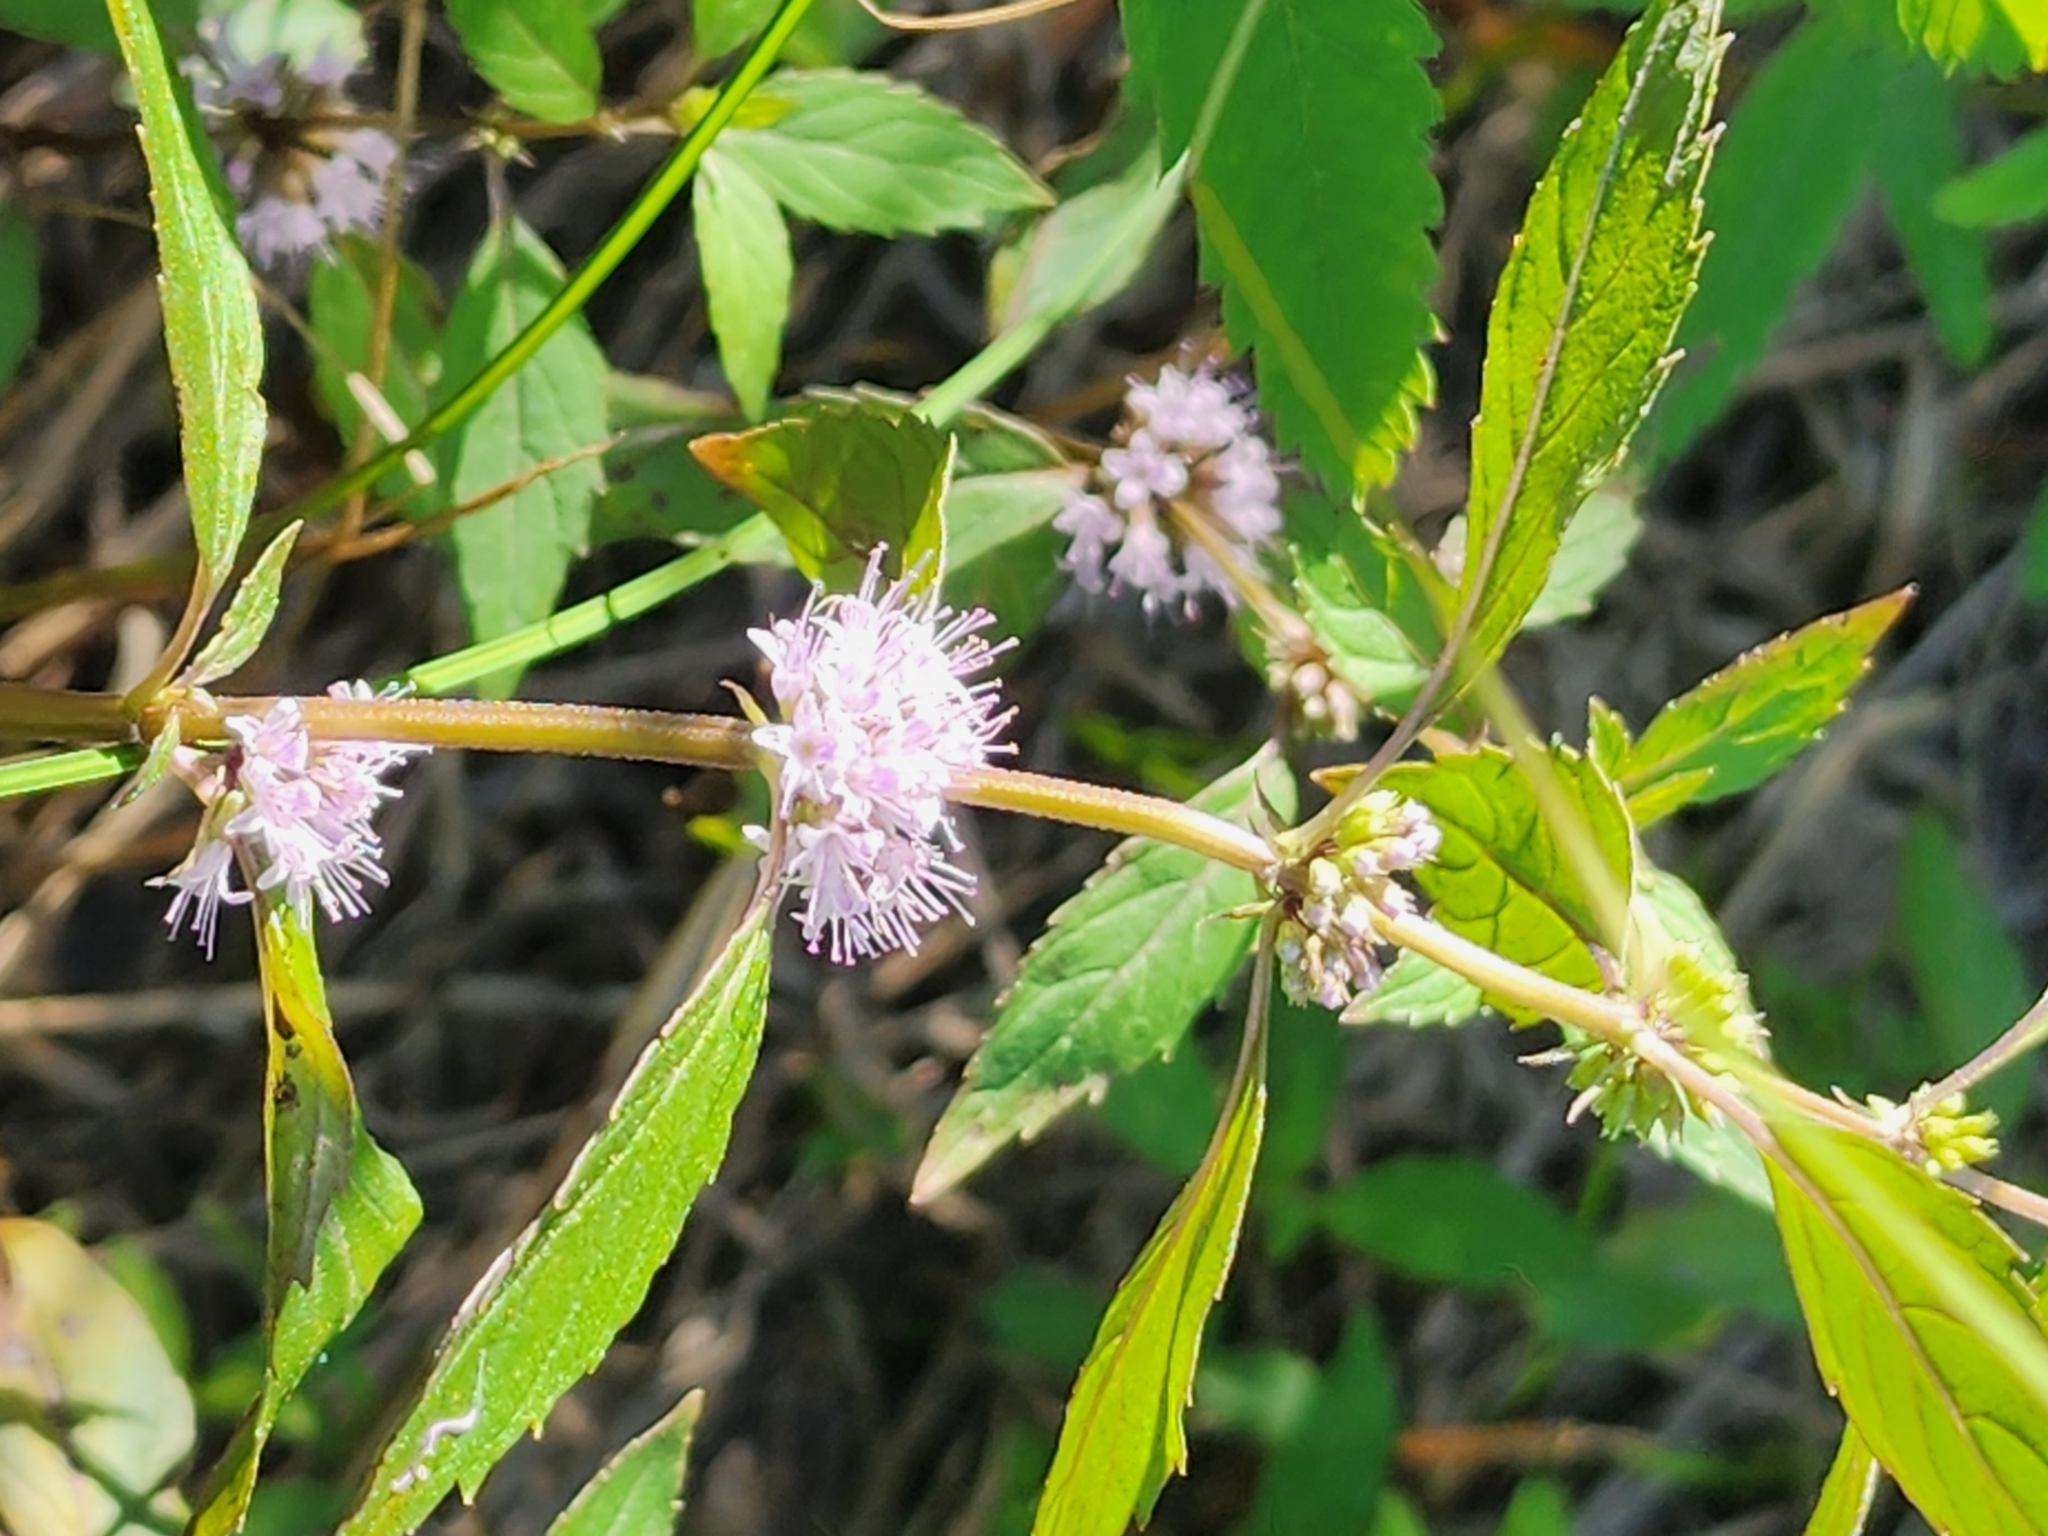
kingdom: Plantae
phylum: Tracheophyta
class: Magnoliopsida
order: Lamiales
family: Lamiaceae
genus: Mentha
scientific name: Mentha canadensis
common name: American corn mint
